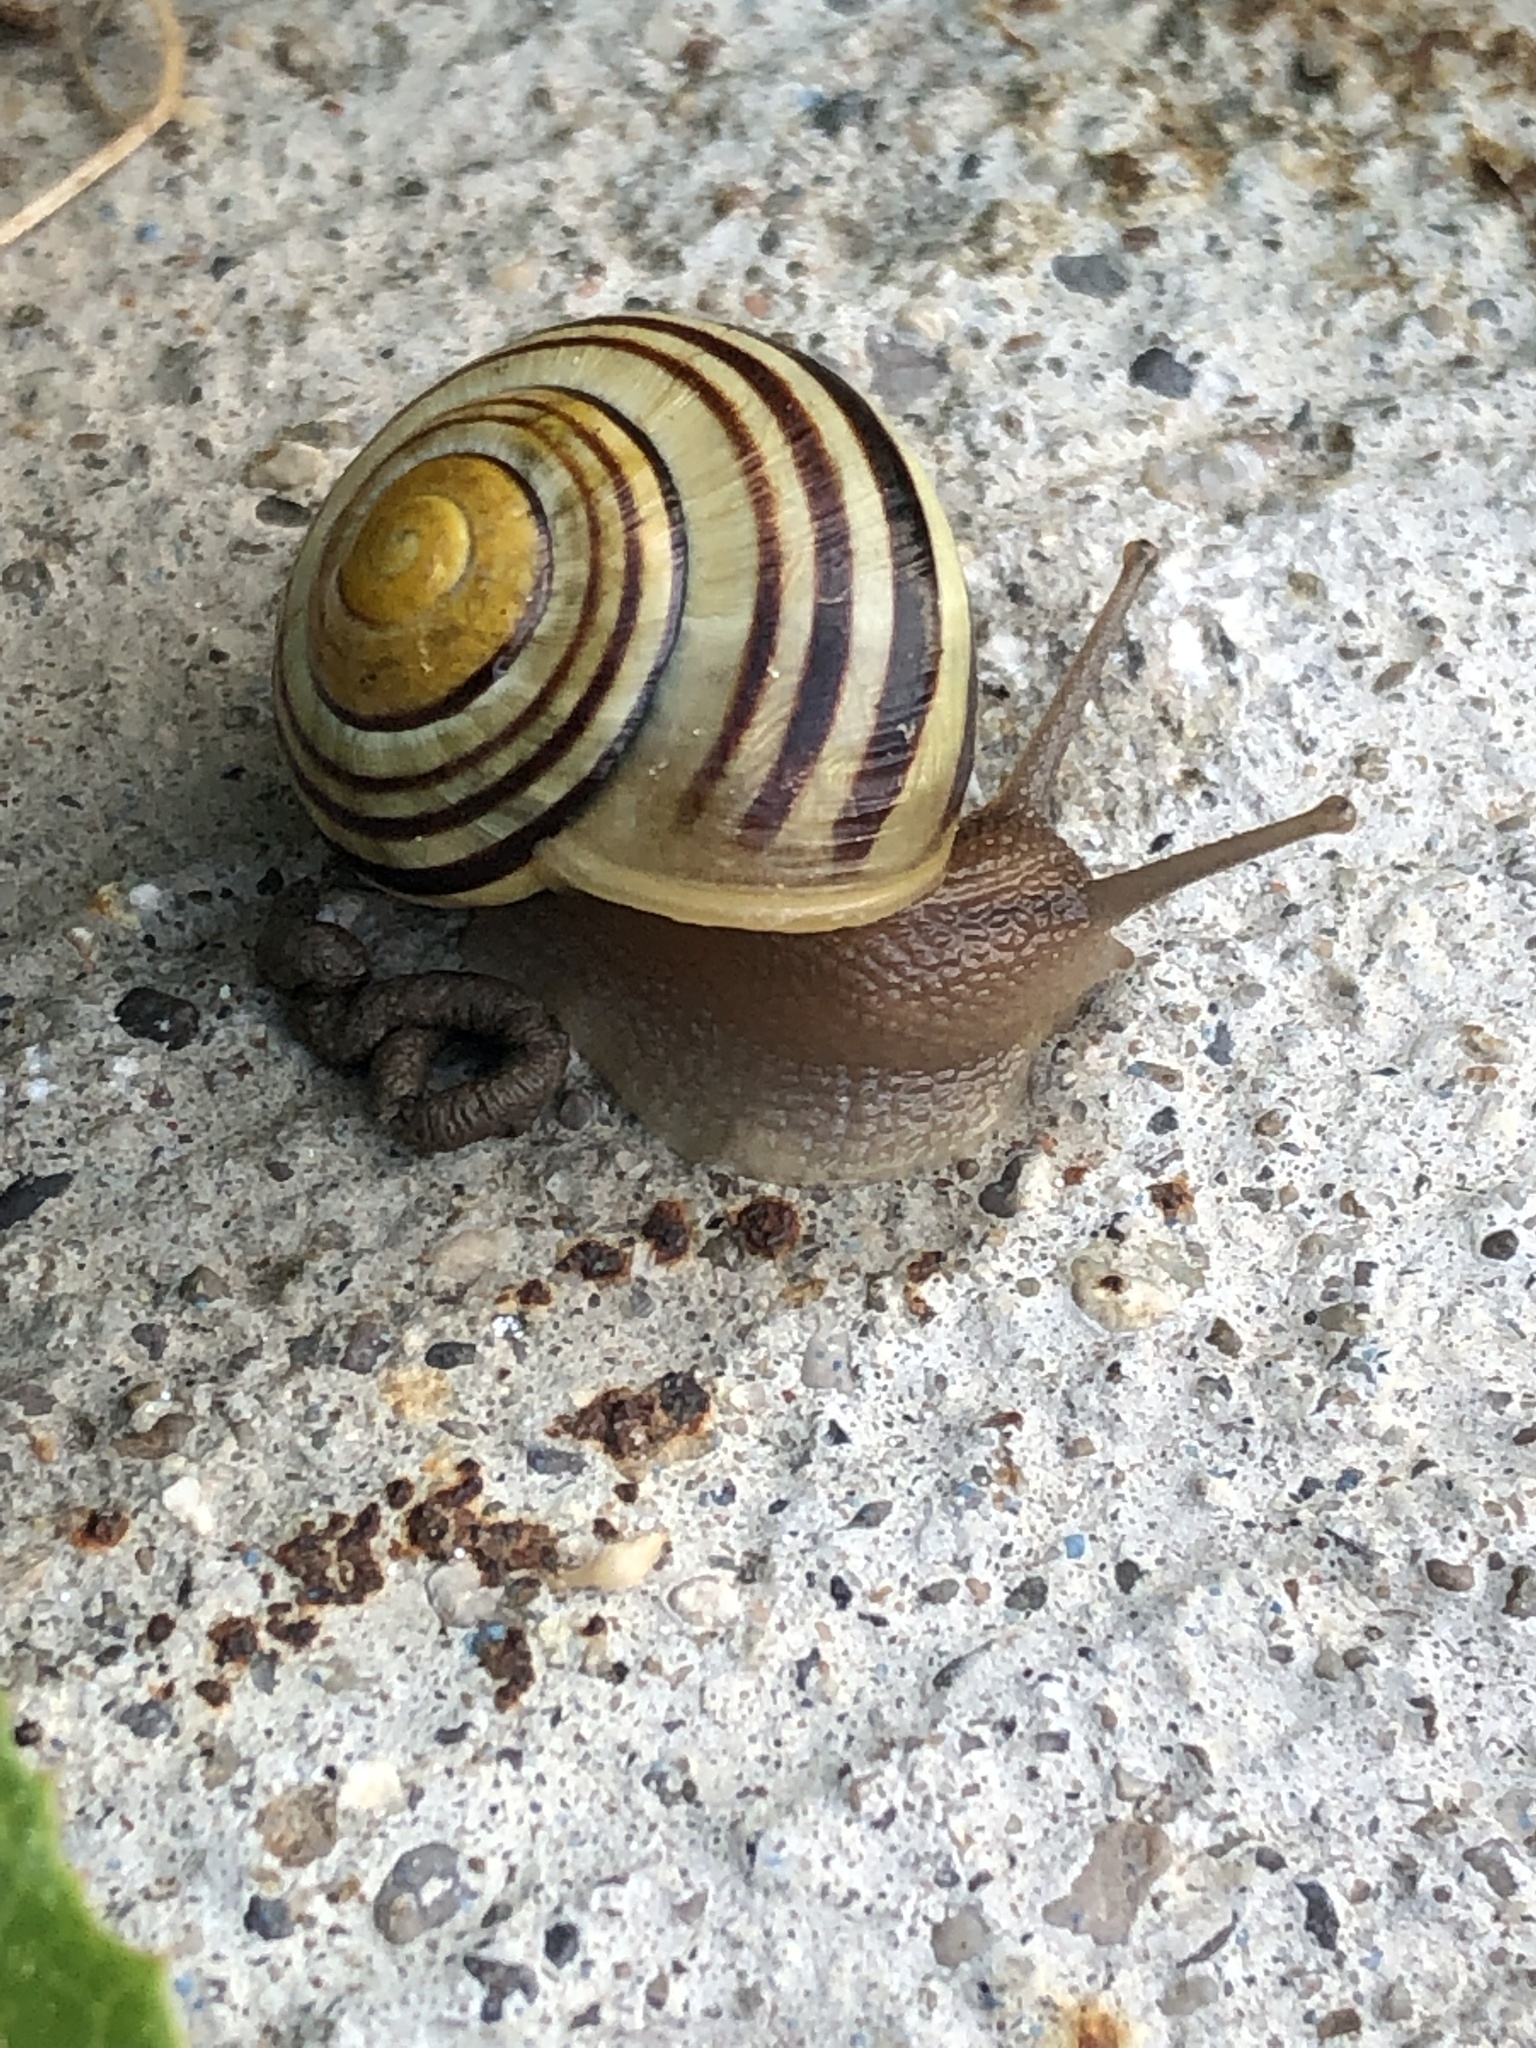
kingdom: Animalia
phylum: Mollusca
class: Gastropoda
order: Stylommatophora
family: Helicidae
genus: Cepaea
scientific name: Cepaea
